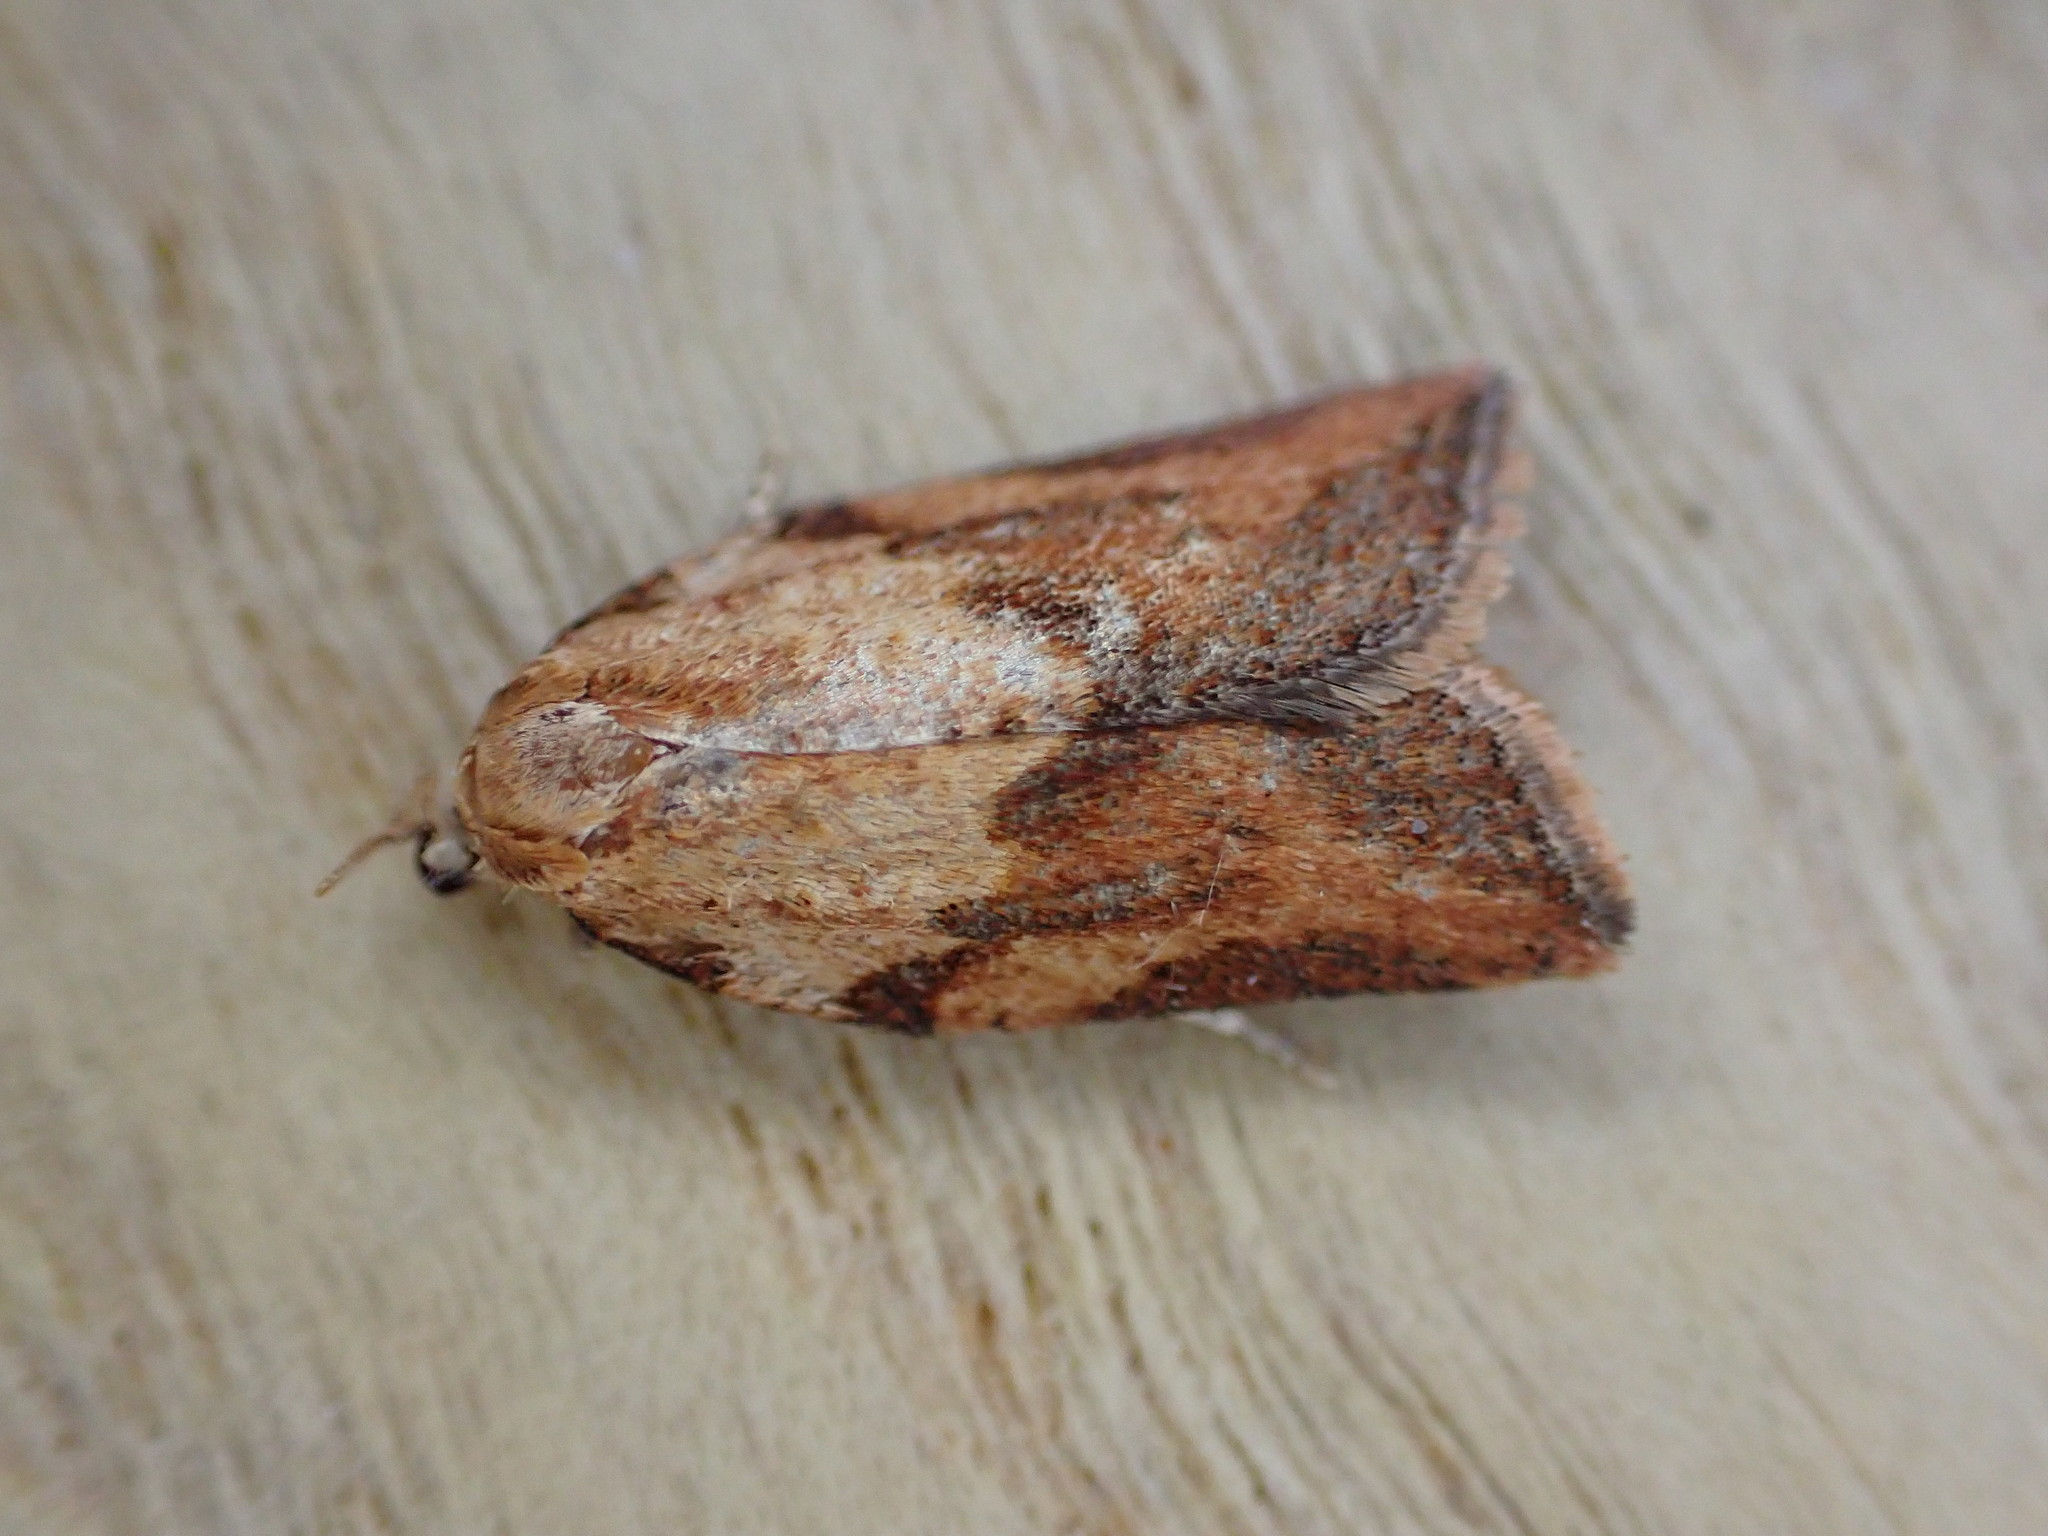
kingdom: Animalia
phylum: Arthropoda
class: Insecta
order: Lepidoptera
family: Tortricidae
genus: Epiphyas
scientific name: Epiphyas postvittana
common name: Light brown apple moth
